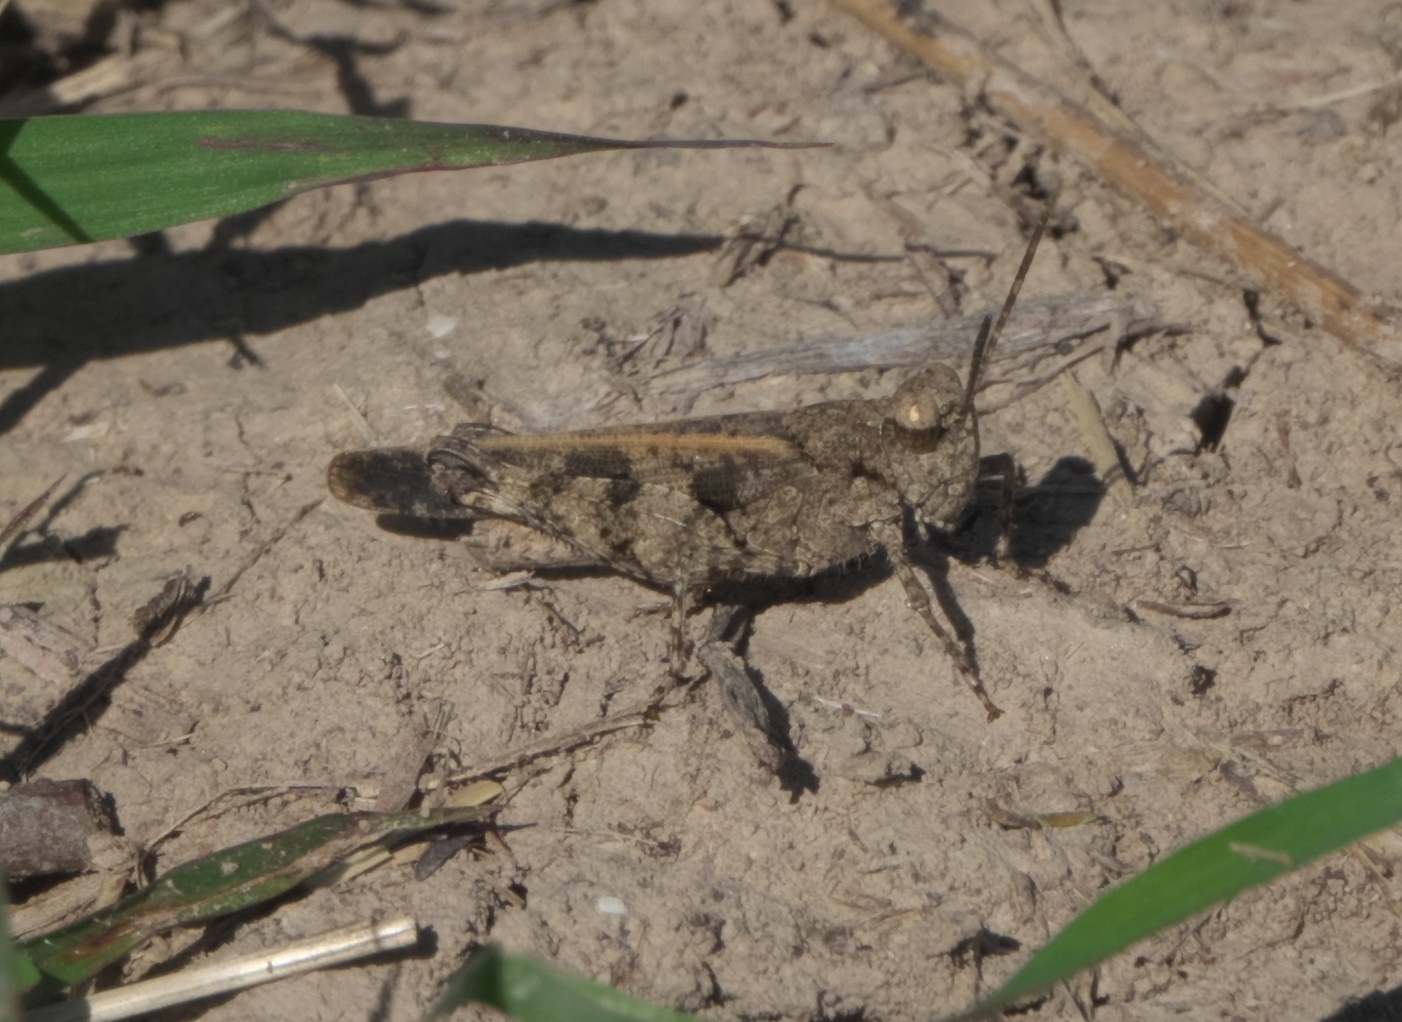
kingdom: Animalia
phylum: Arthropoda
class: Insecta
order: Orthoptera
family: Acrididae
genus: Nebulatettix
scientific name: Nebulatettix subgracilis
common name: Southwestern dusky grasshopper
